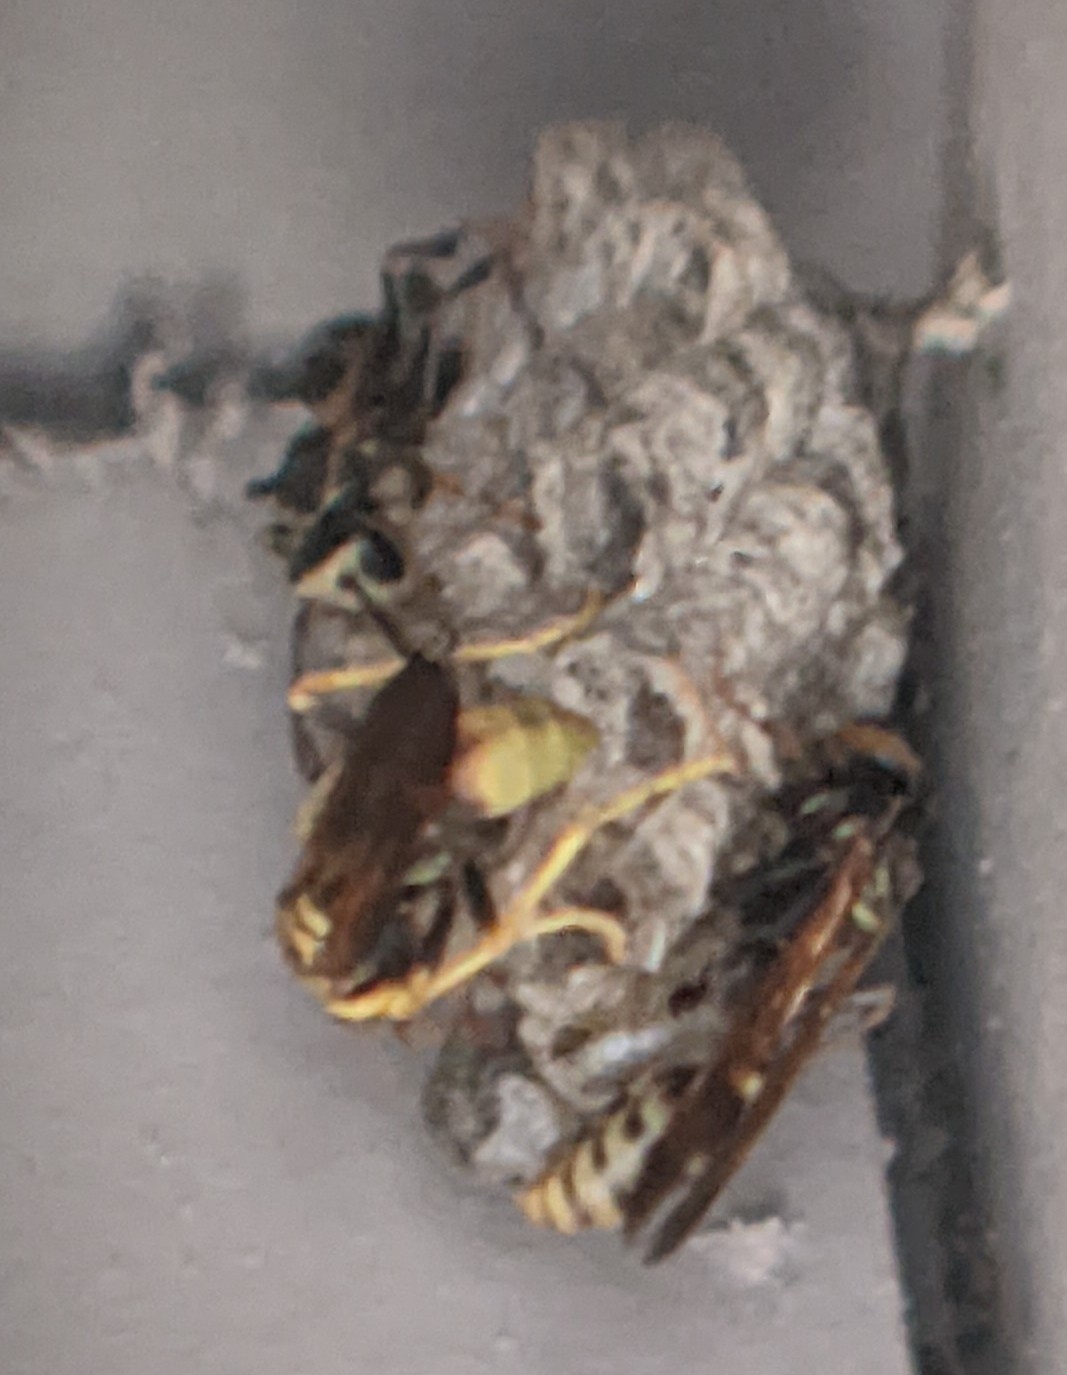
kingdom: Animalia
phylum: Arthropoda
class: Insecta
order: Hymenoptera
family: Vespidae
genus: Mischocyttarus
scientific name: Mischocyttarus flavitarsis
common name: Wasp
